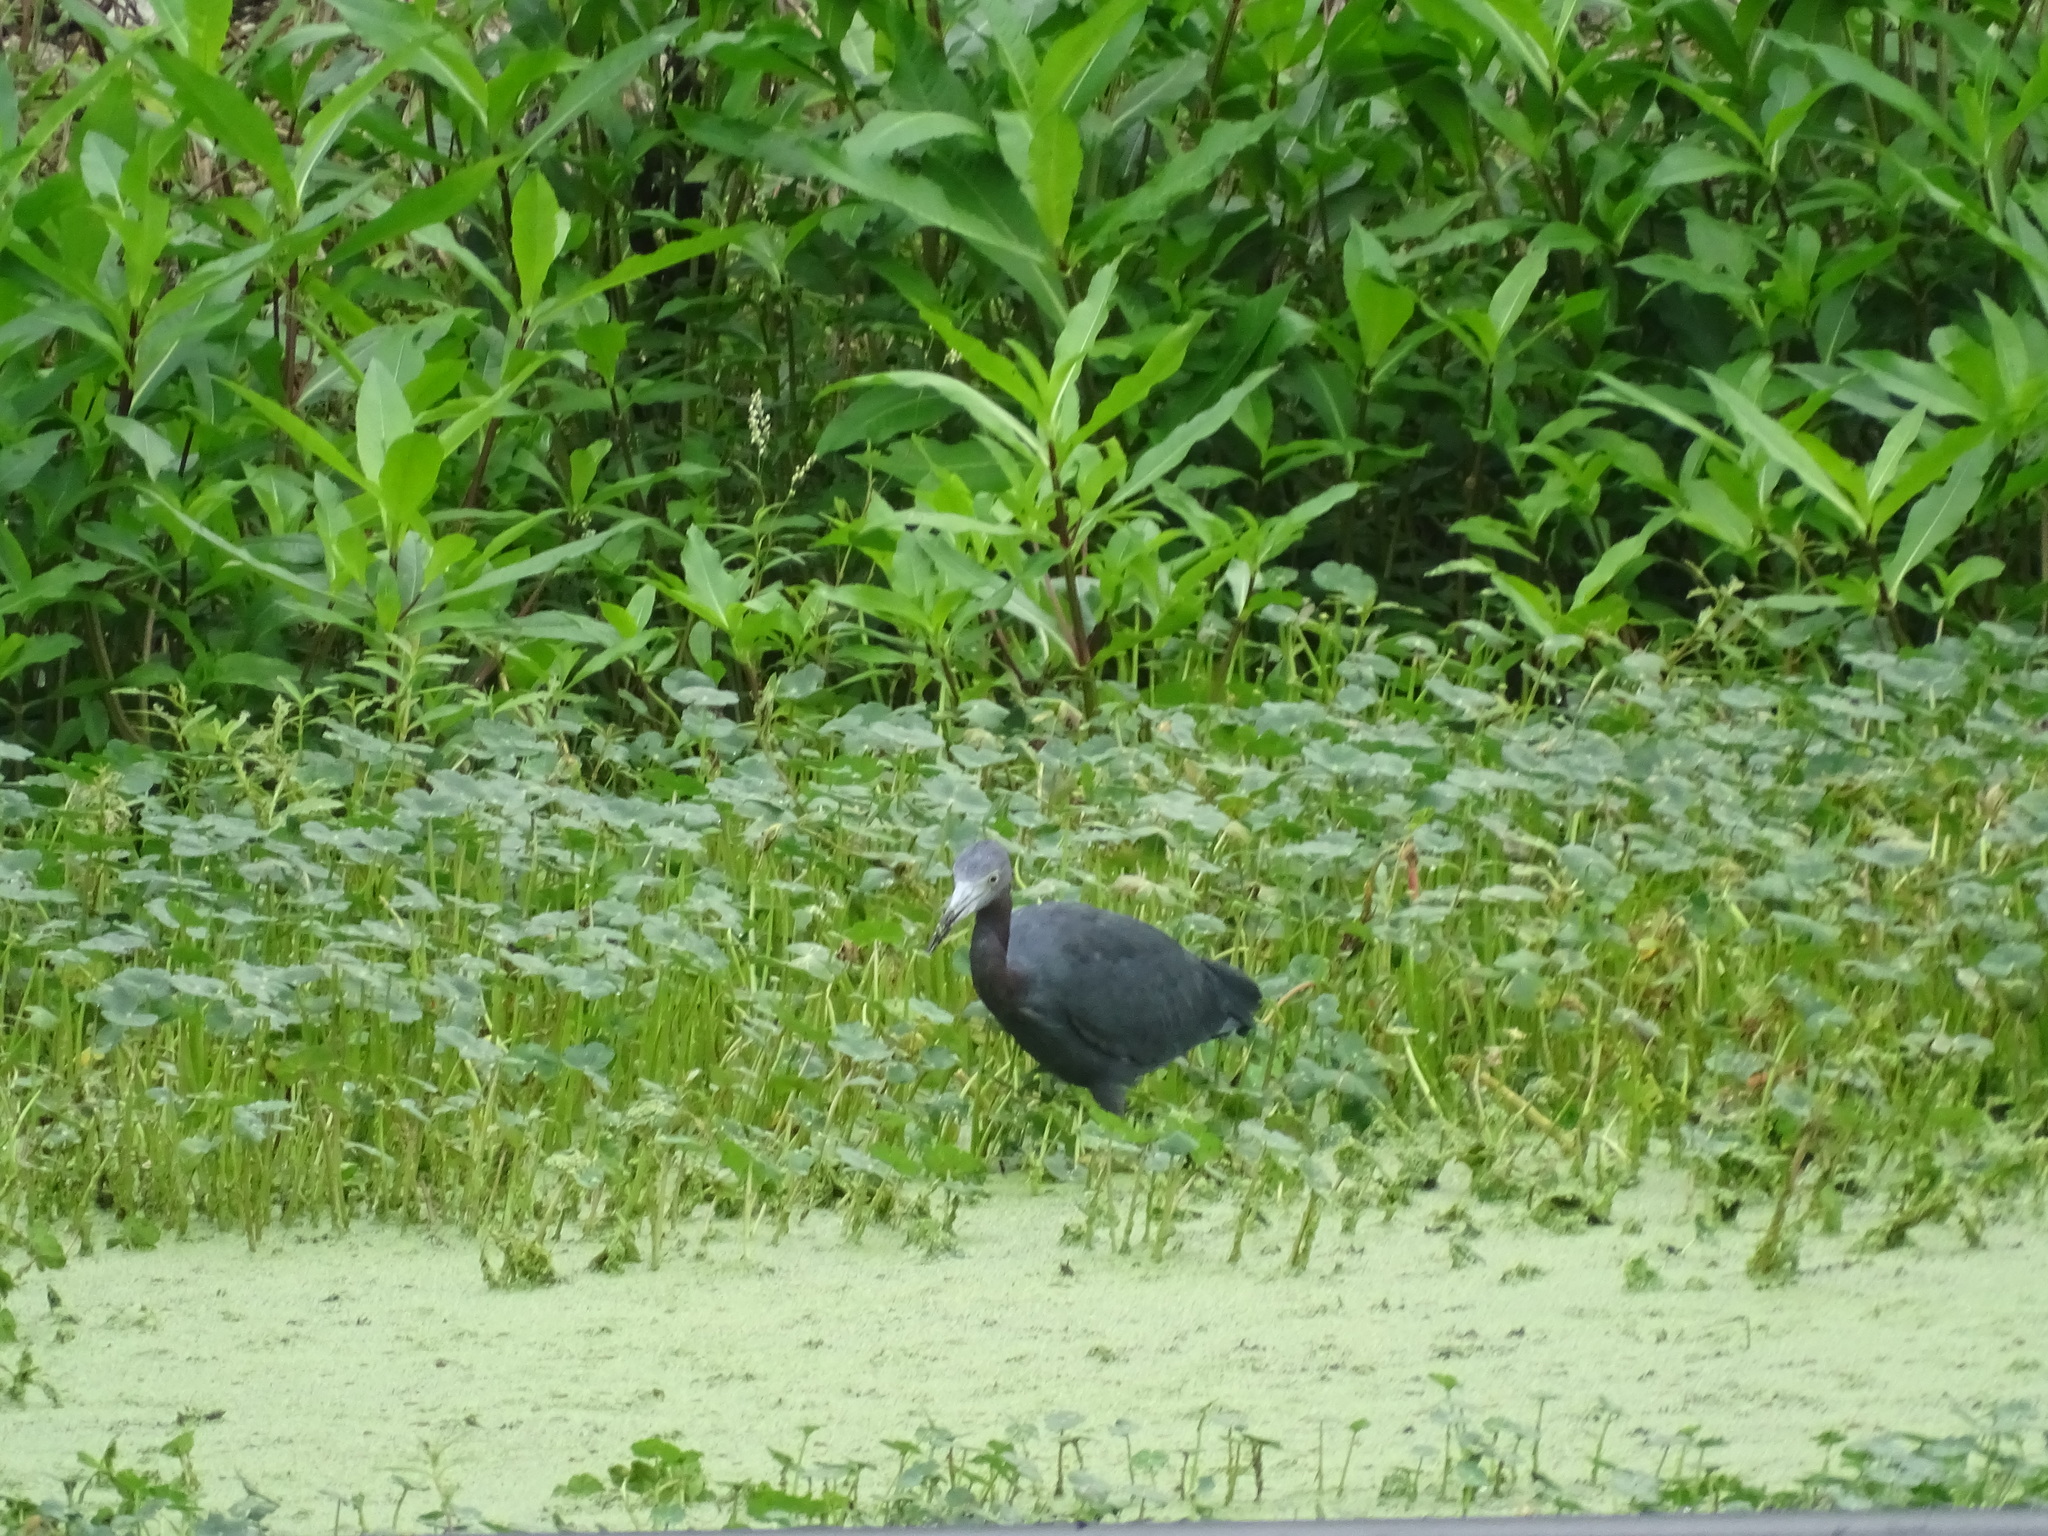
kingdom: Animalia
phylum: Chordata
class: Aves
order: Pelecaniformes
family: Ardeidae
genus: Egretta
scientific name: Egretta caerulea
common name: Little blue heron
